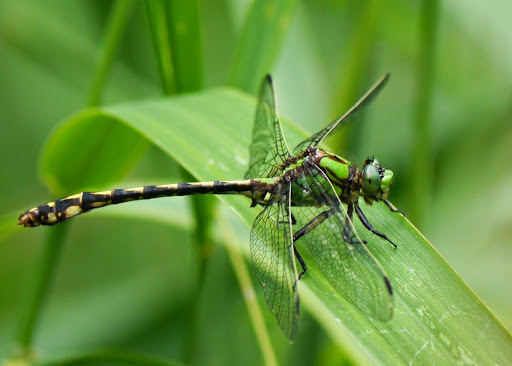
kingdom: Animalia
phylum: Arthropoda
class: Insecta
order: Odonata
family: Gomphidae
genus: Ophiogomphus
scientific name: Ophiogomphus aspersus
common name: Brook snaketail
